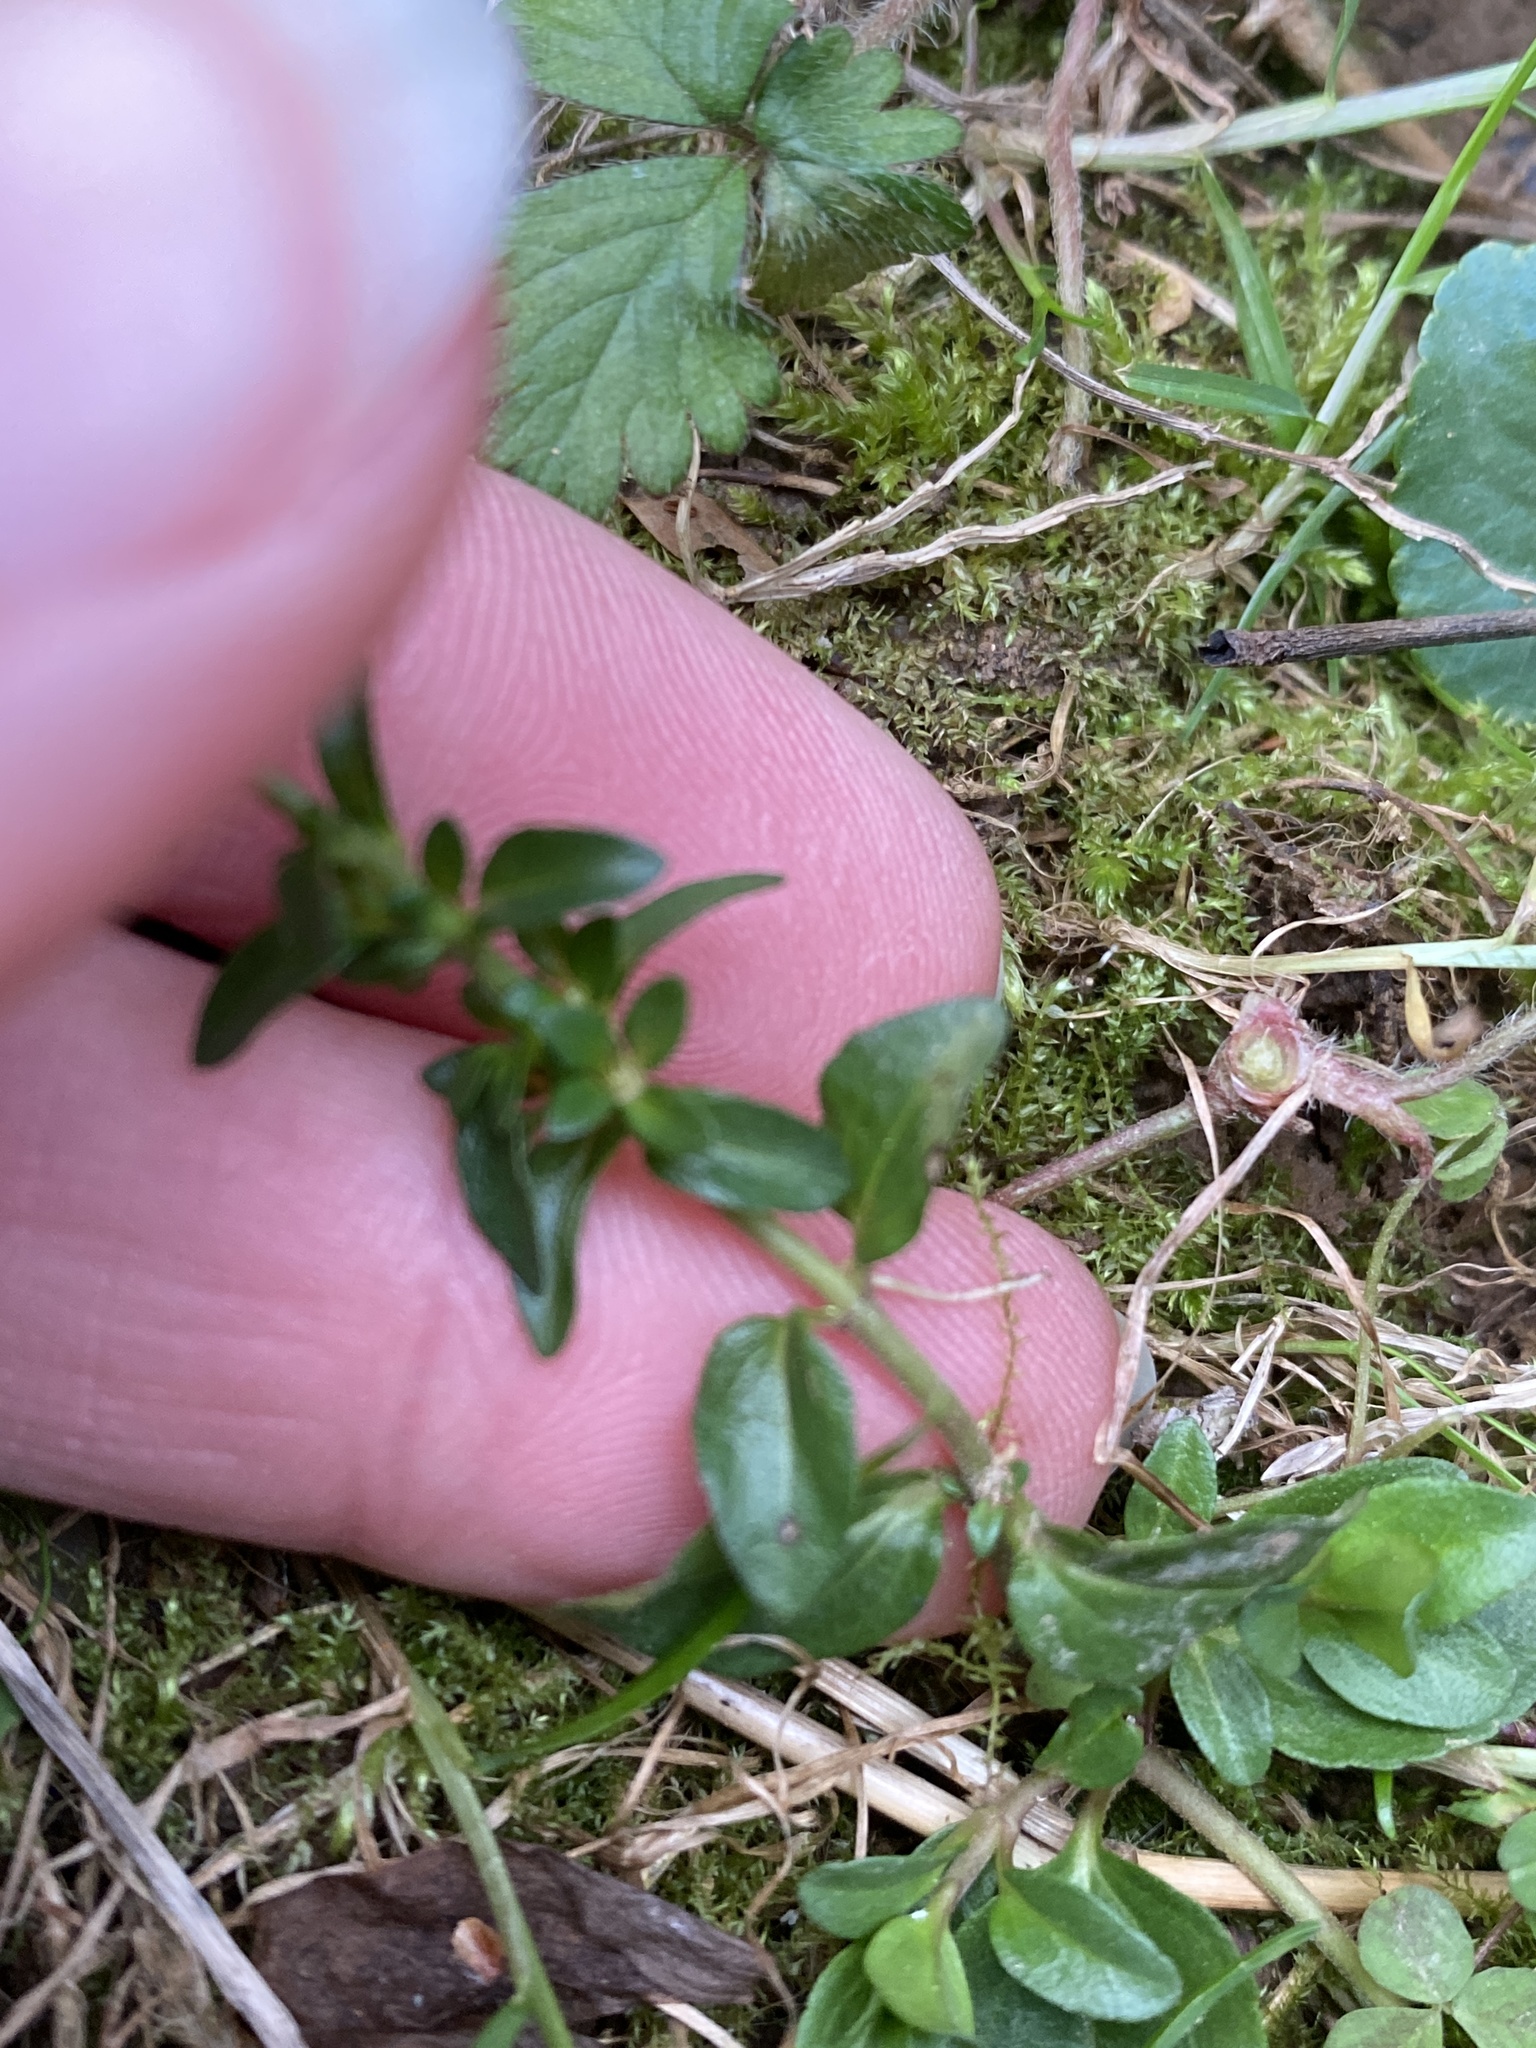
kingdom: Plantae
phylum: Tracheophyta
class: Magnoliopsida
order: Lamiales
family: Plantaginaceae
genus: Veronica
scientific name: Veronica serpyllifolia
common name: Thyme-leaved speedwell
